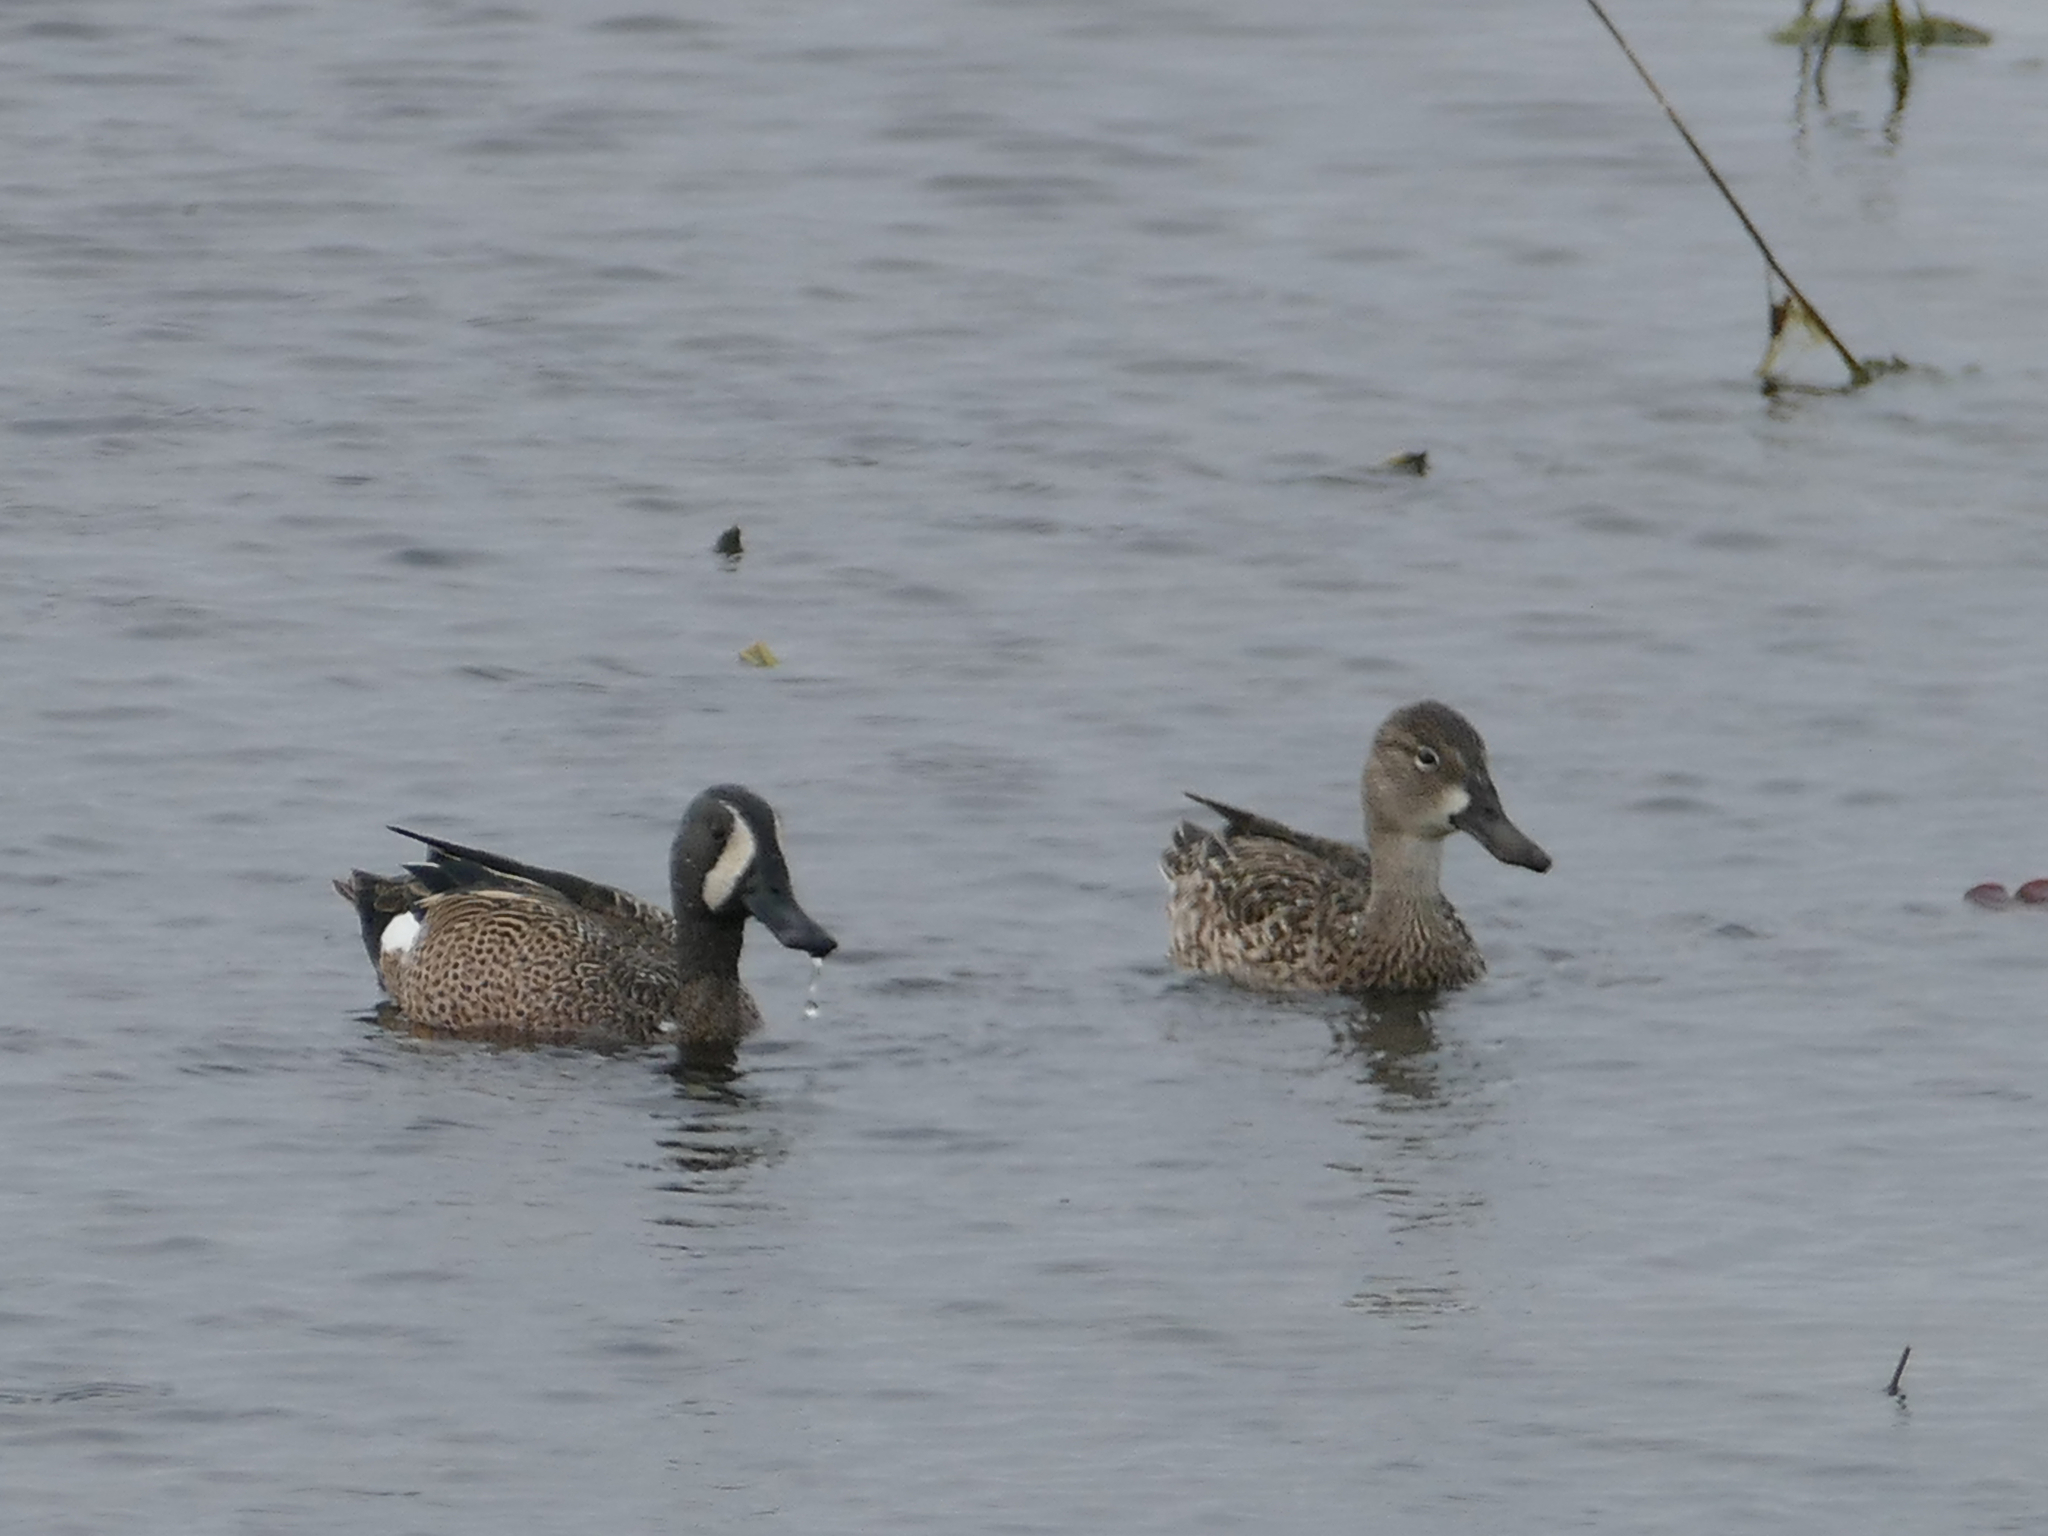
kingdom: Animalia
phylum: Chordata
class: Aves
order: Anseriformes
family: Anatidae
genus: Spatula
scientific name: Spatula discors
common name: Blue-winged teal
